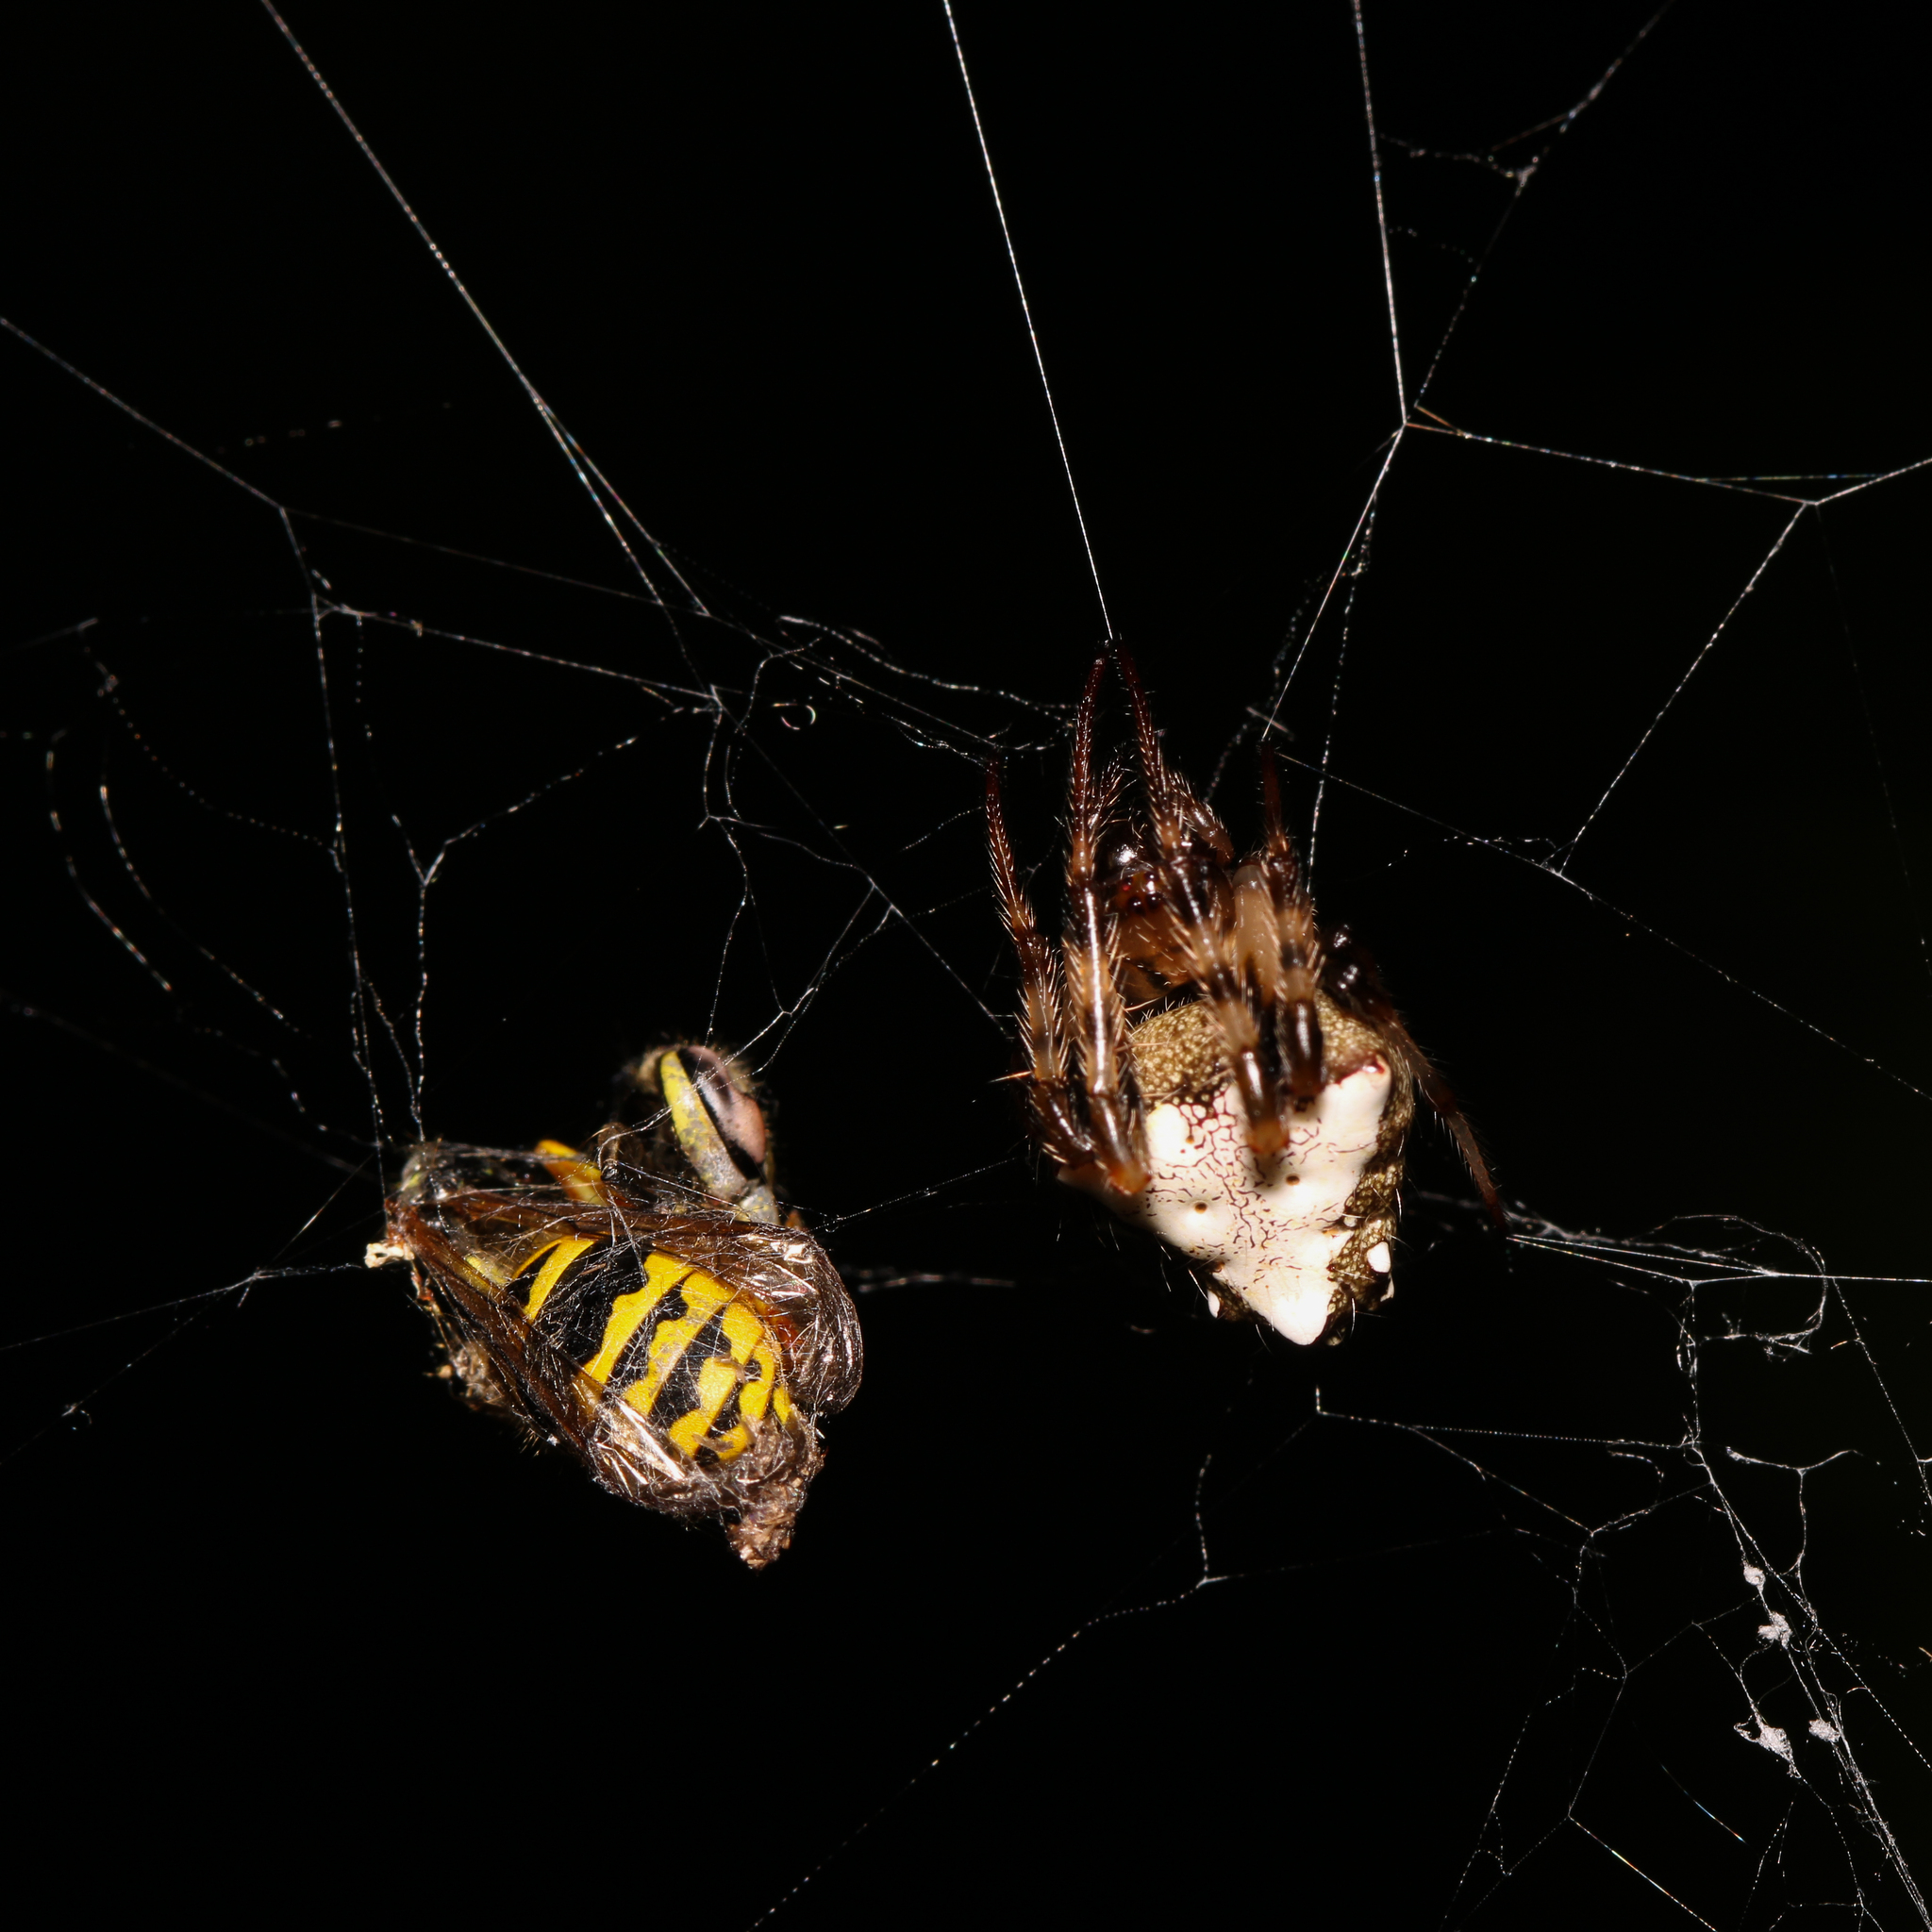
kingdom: Animalia
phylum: Arthropoda
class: Arachnida
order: Araneae
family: Araneidae
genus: Verrucosa
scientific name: Verrucosa arenata
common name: Orb weavers
